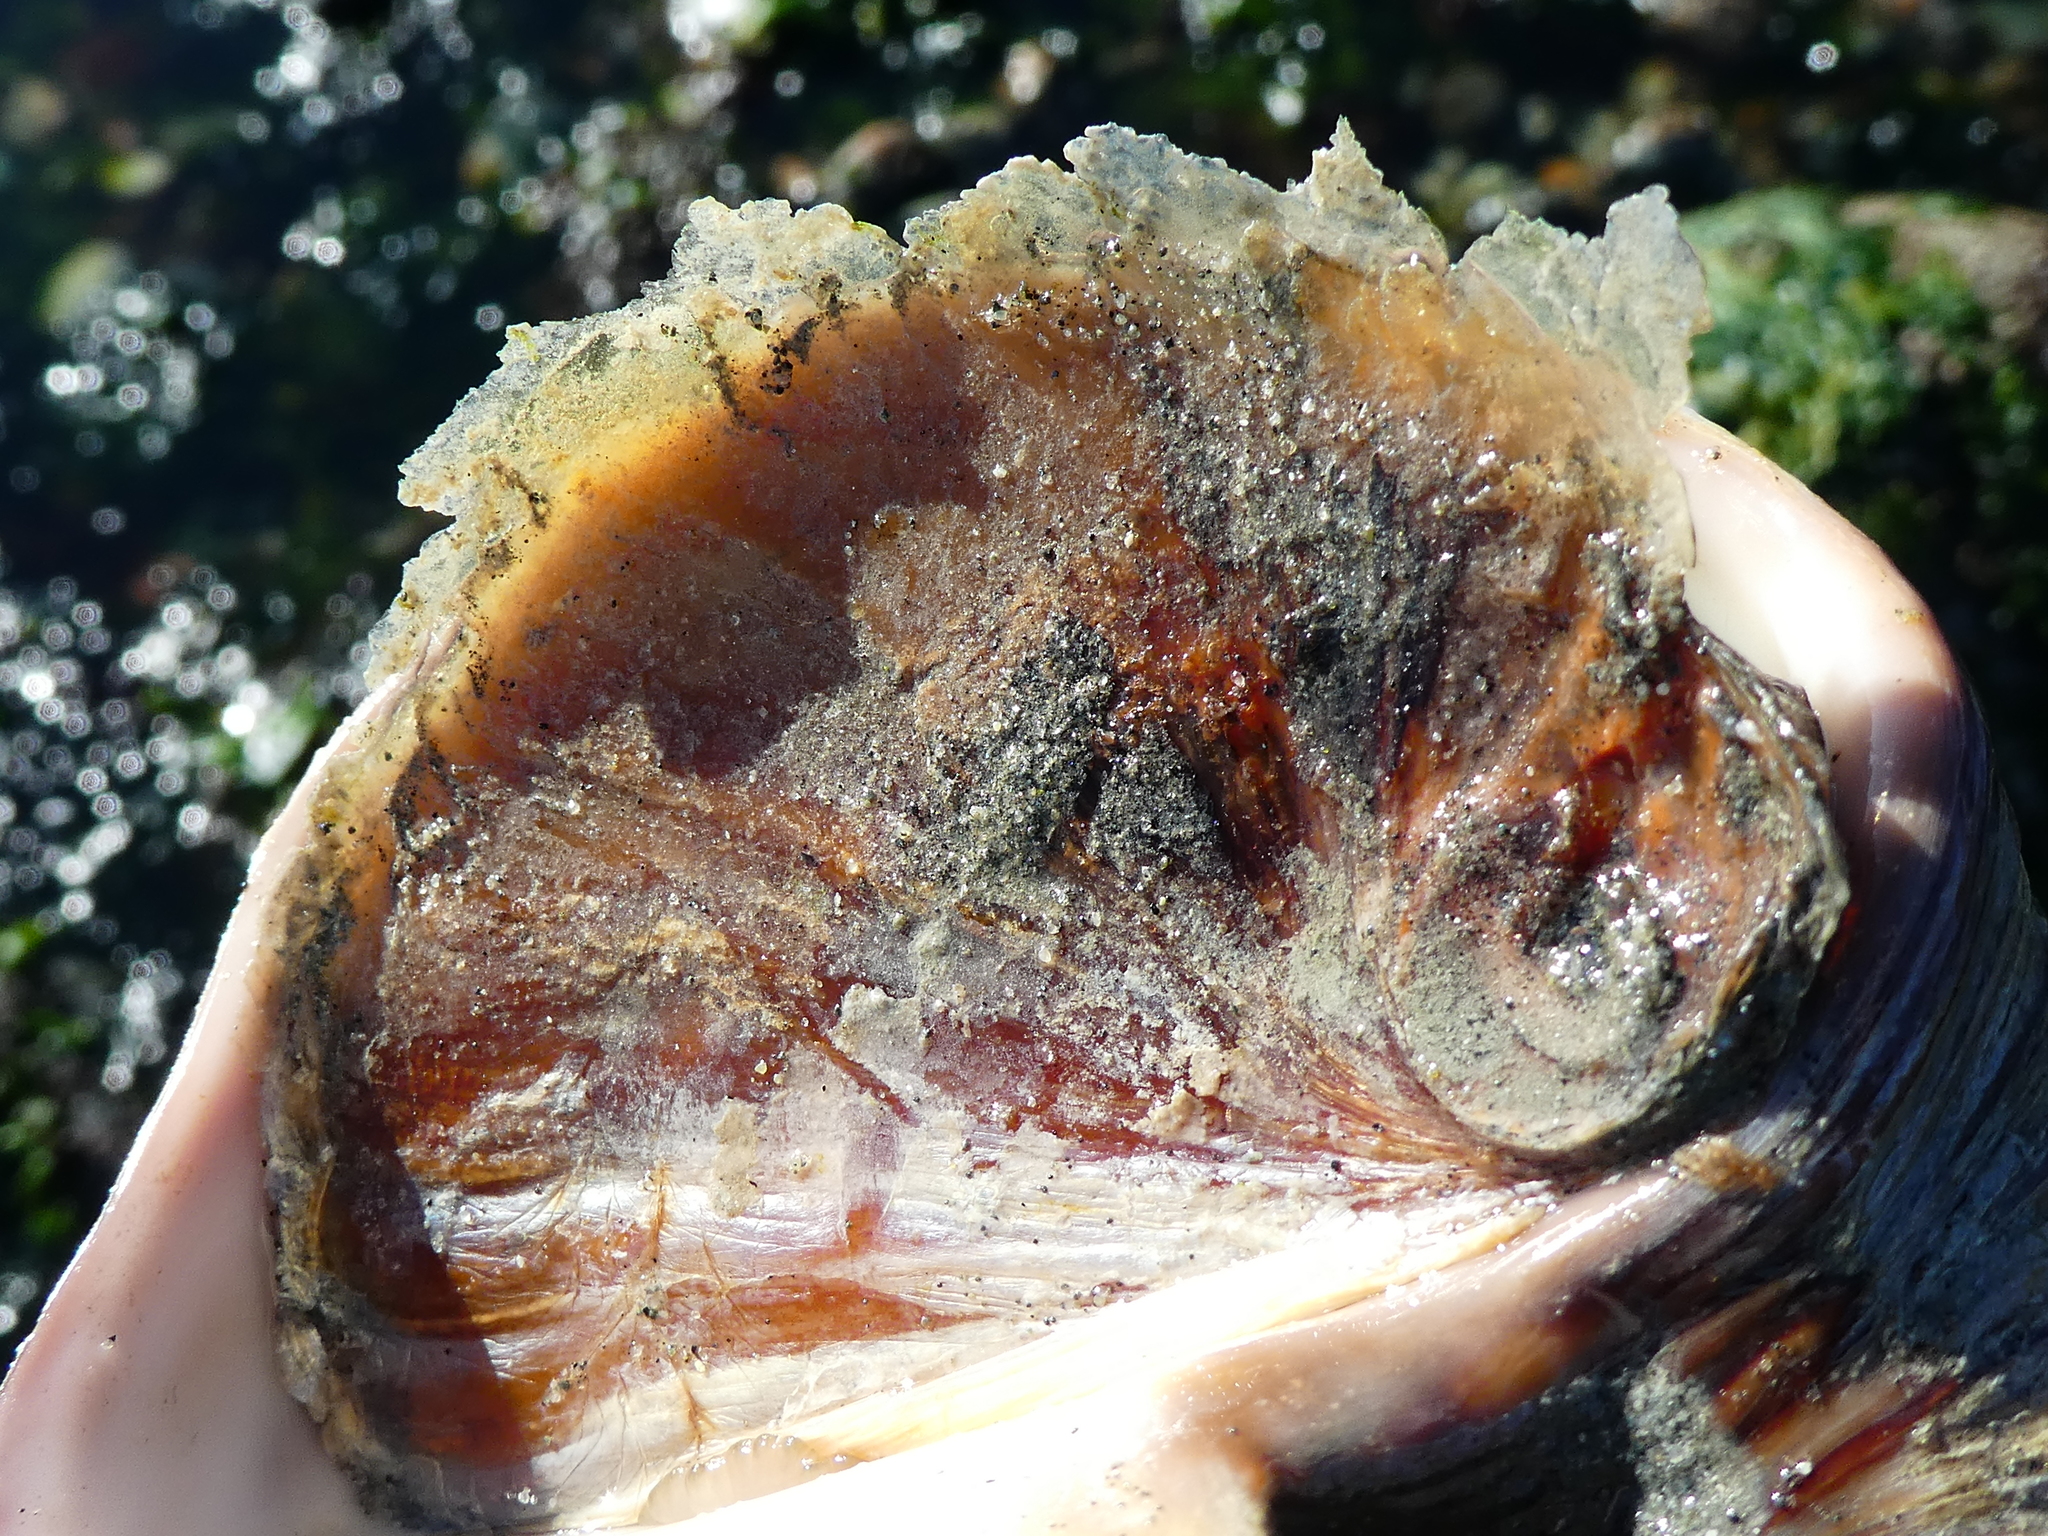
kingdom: Animalia
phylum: Mollusca
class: Gastropoda
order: Littorinimorpha
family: Naticidae
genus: Neverita
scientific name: Neverita lewisii
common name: Lewis' moonsnail
